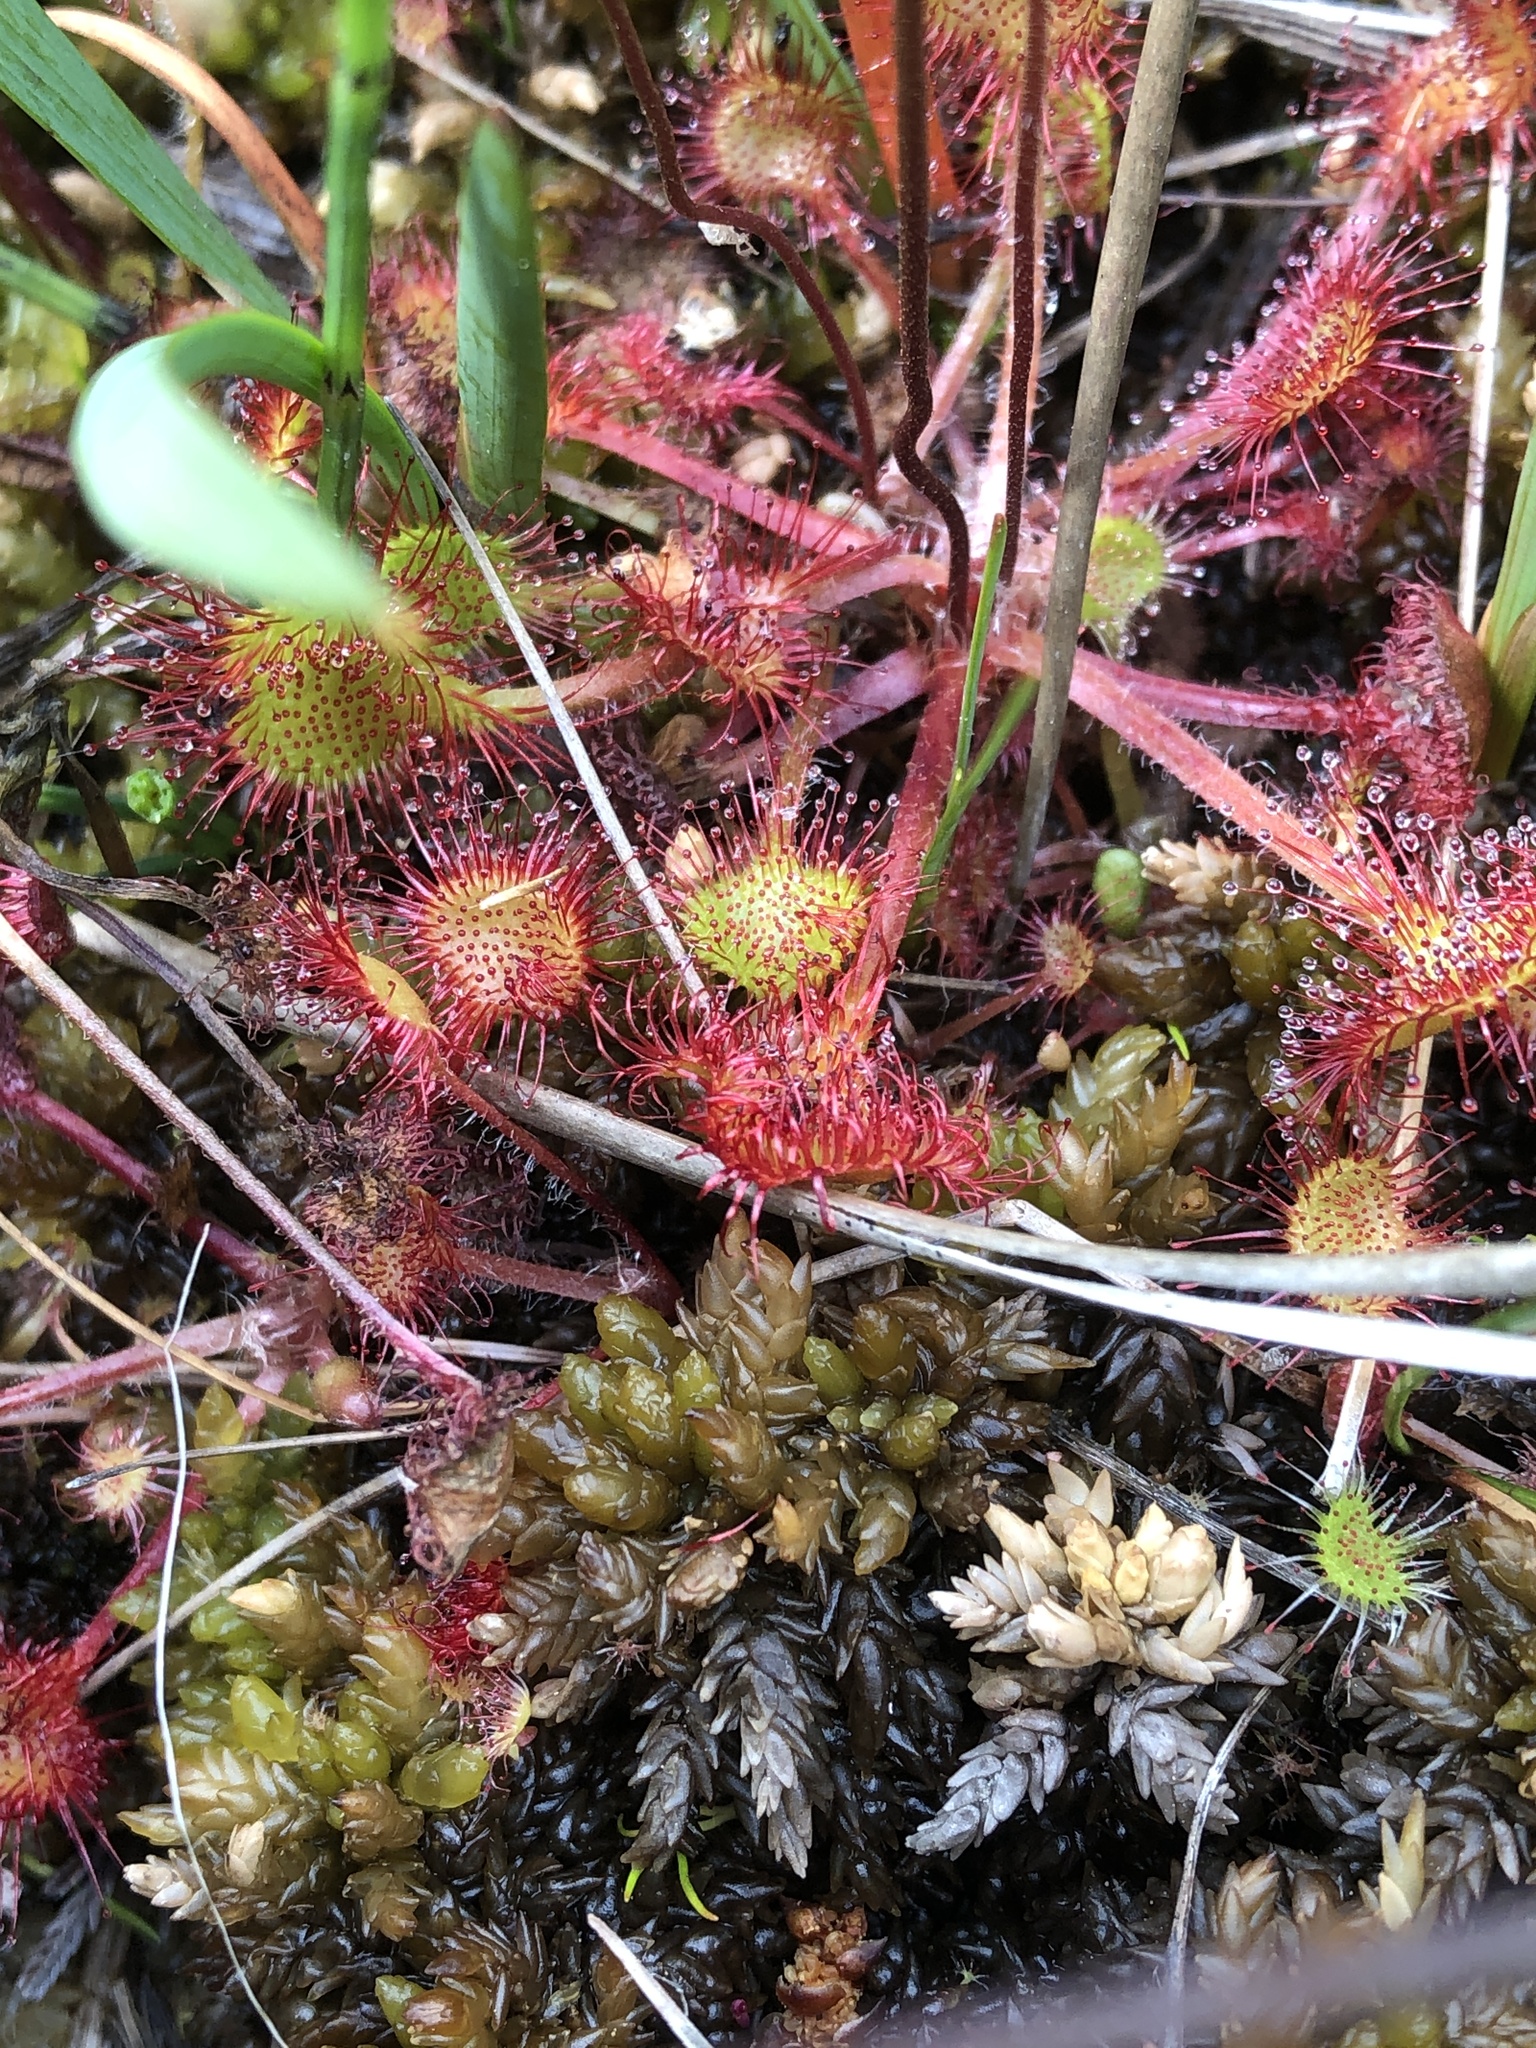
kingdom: Plantae
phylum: Tracheophyta
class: Magnoliopsida
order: Caryophyllales
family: Droseraceae
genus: Drosera
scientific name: Drosera rotundifolia
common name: Round-leaved sundew
